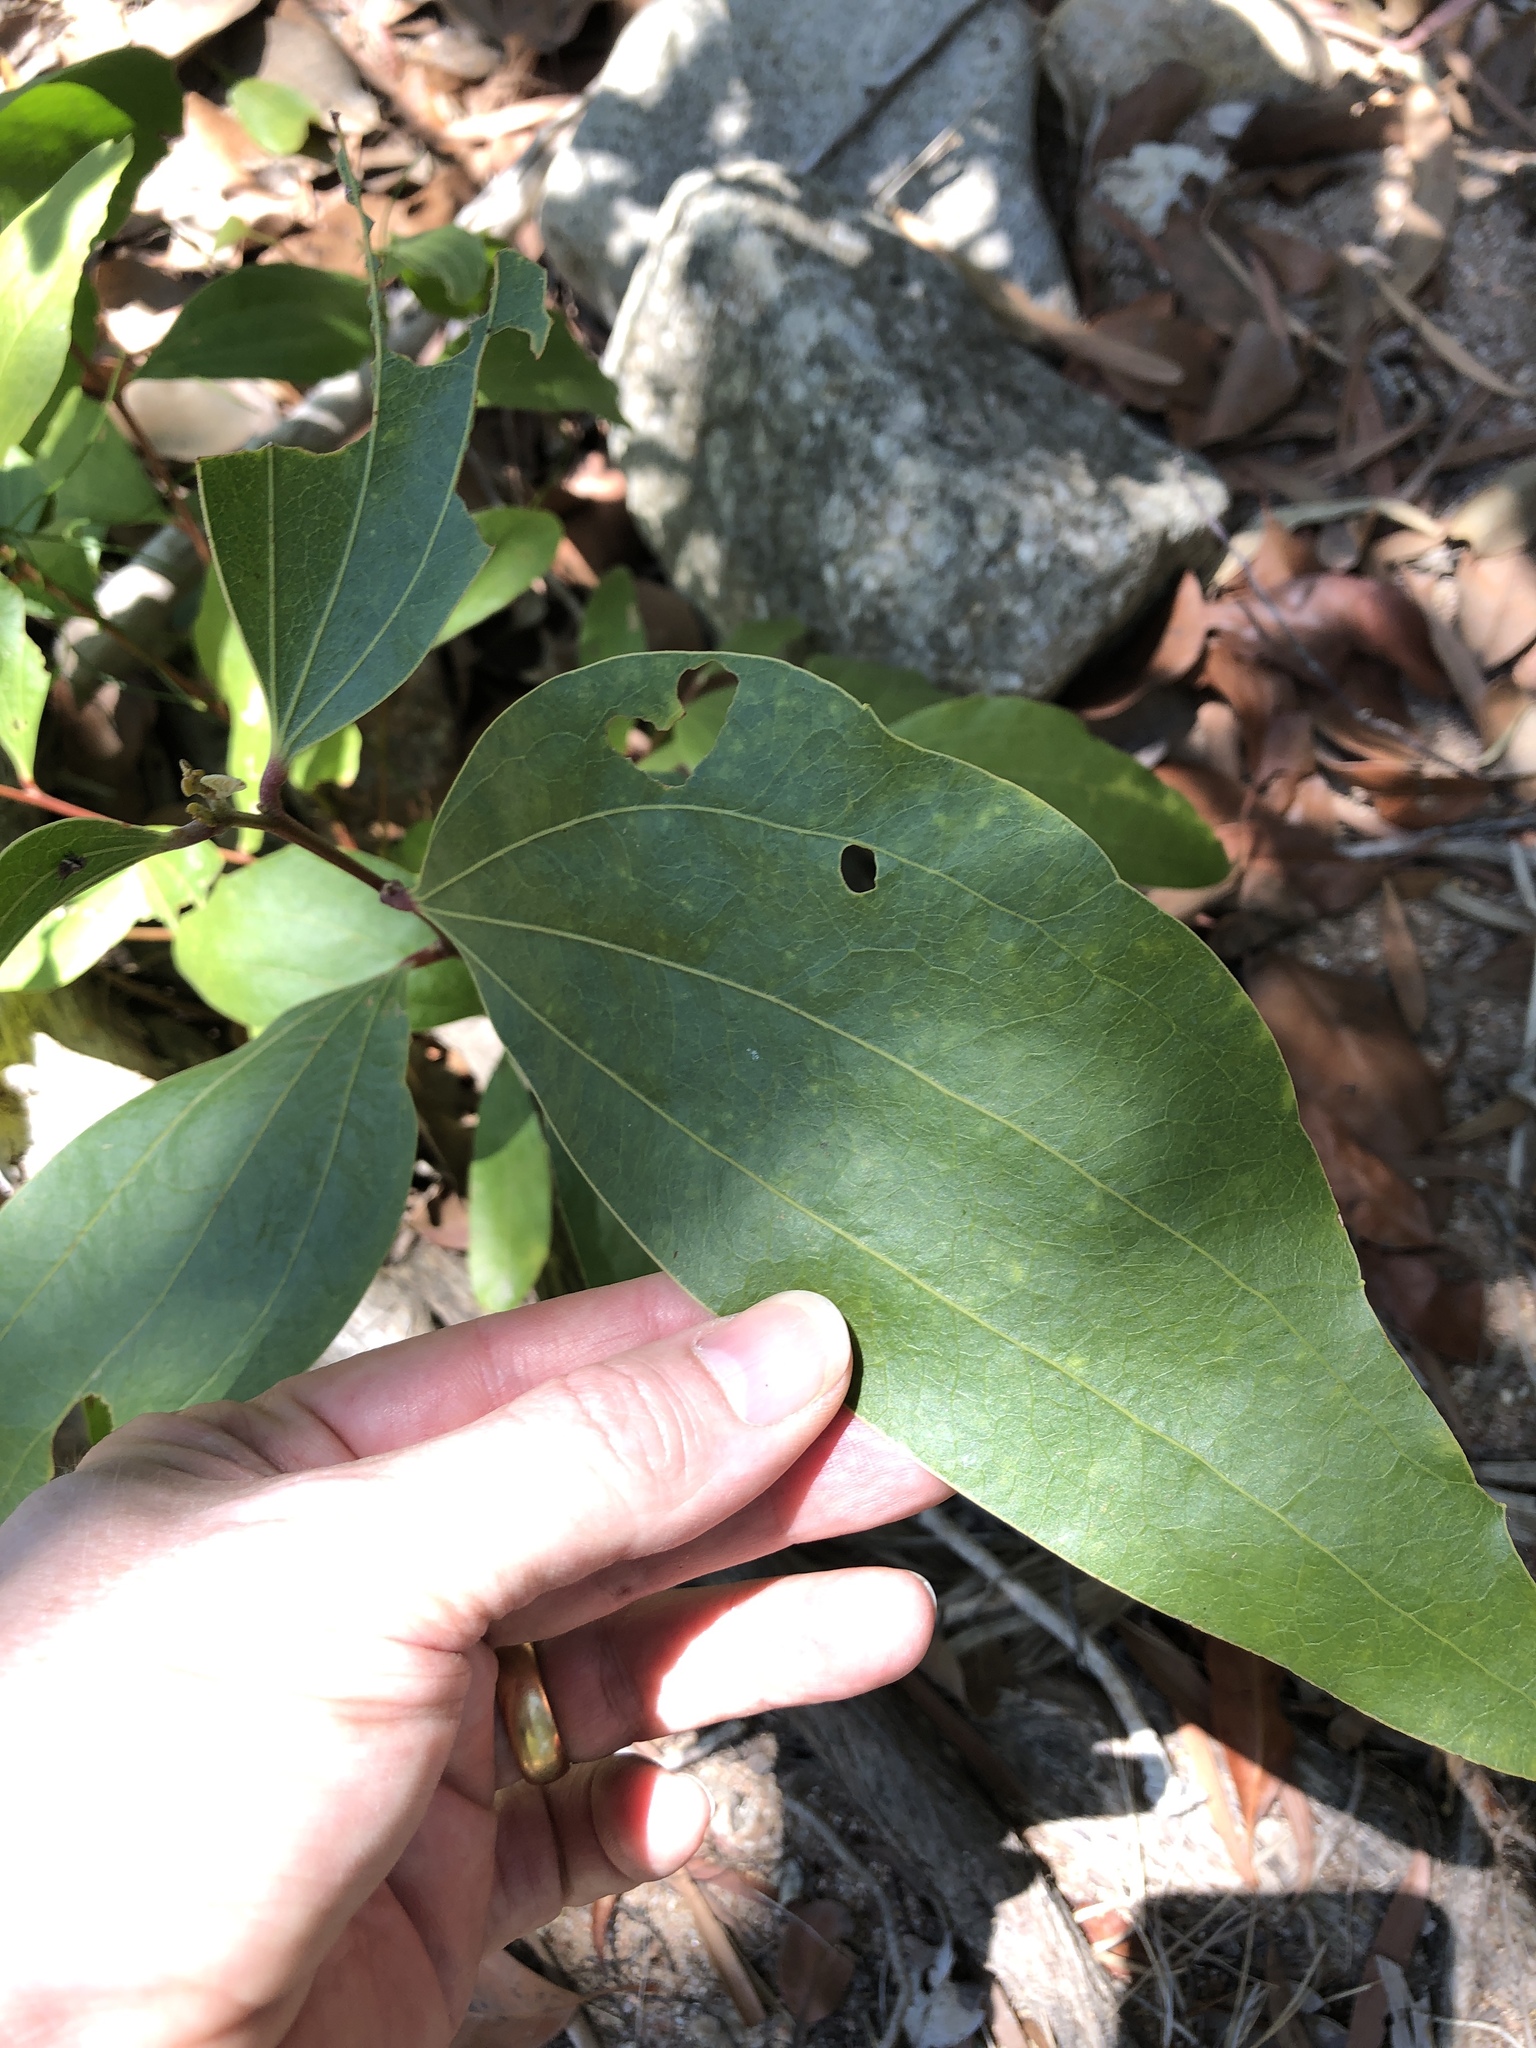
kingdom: Plantae
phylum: Tracheophyta
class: Magnoliopsida
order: Fabales
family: Fabaceae
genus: Acacia
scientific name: Acacia flavescens
